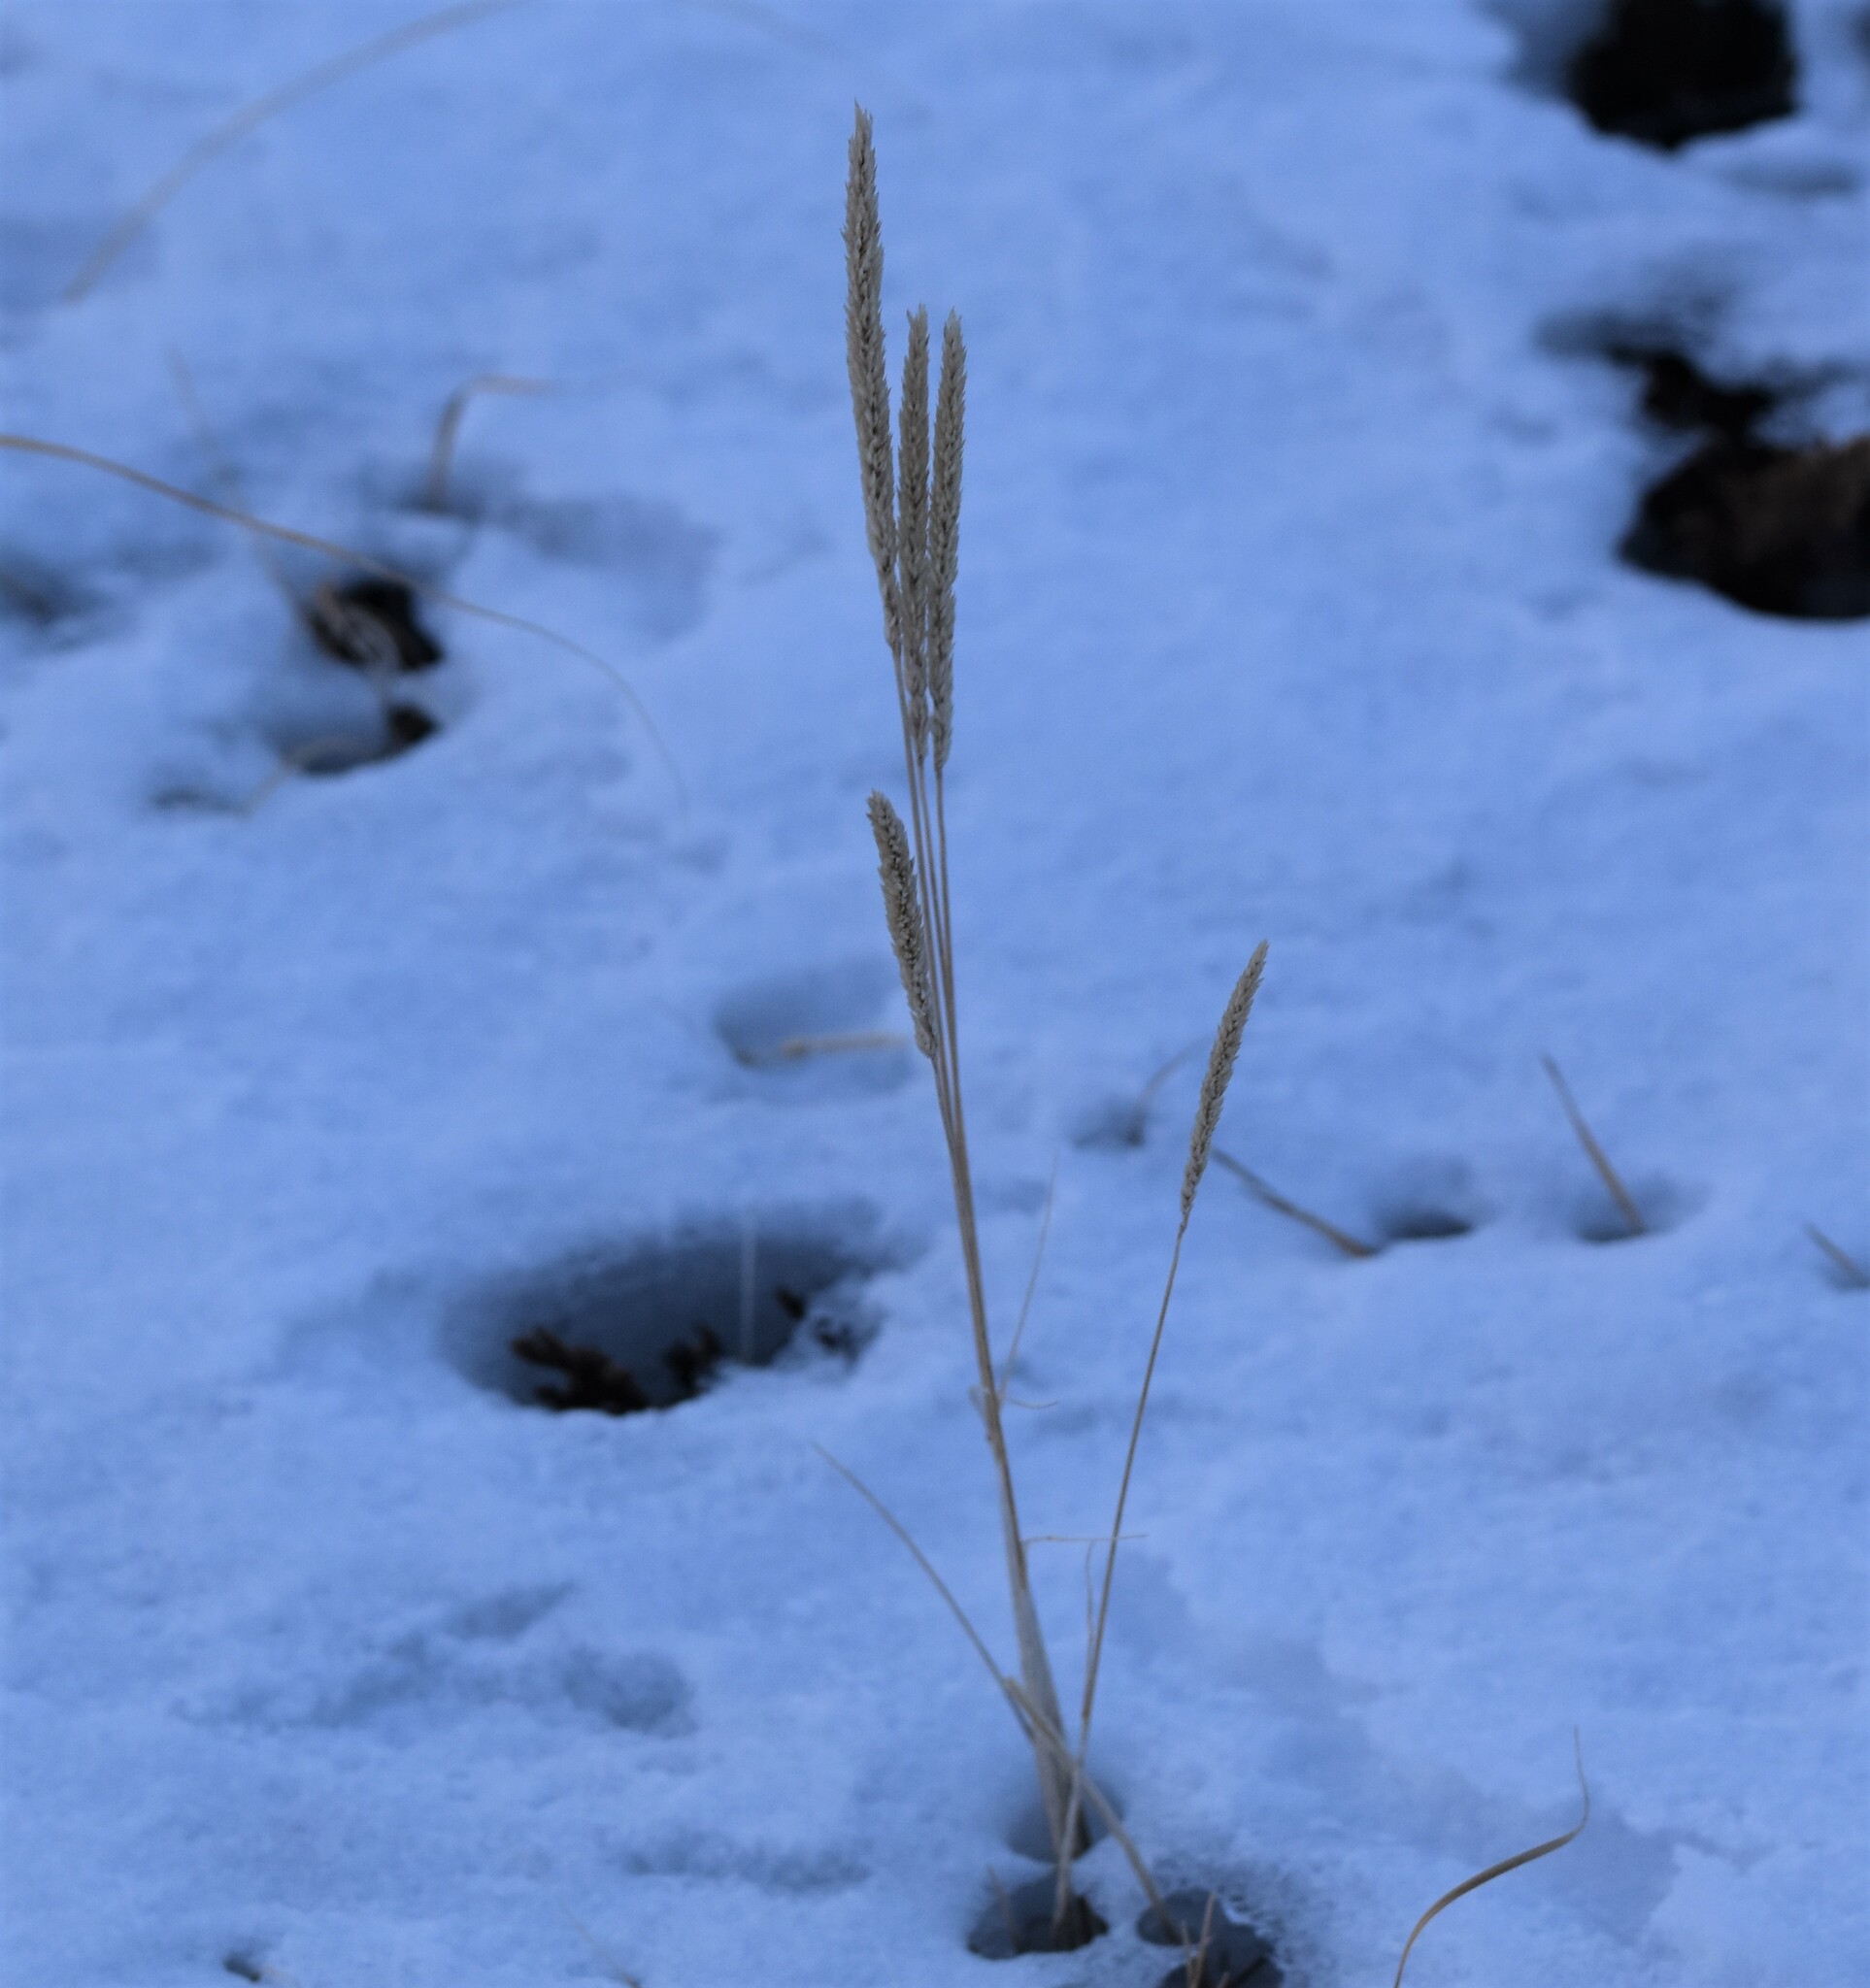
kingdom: Plantae
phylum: Tracheophyta
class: Liliopsida
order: Poales
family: Poaceae
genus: Koeleria
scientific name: Koeleria macrantha
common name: Crested hair-grass
